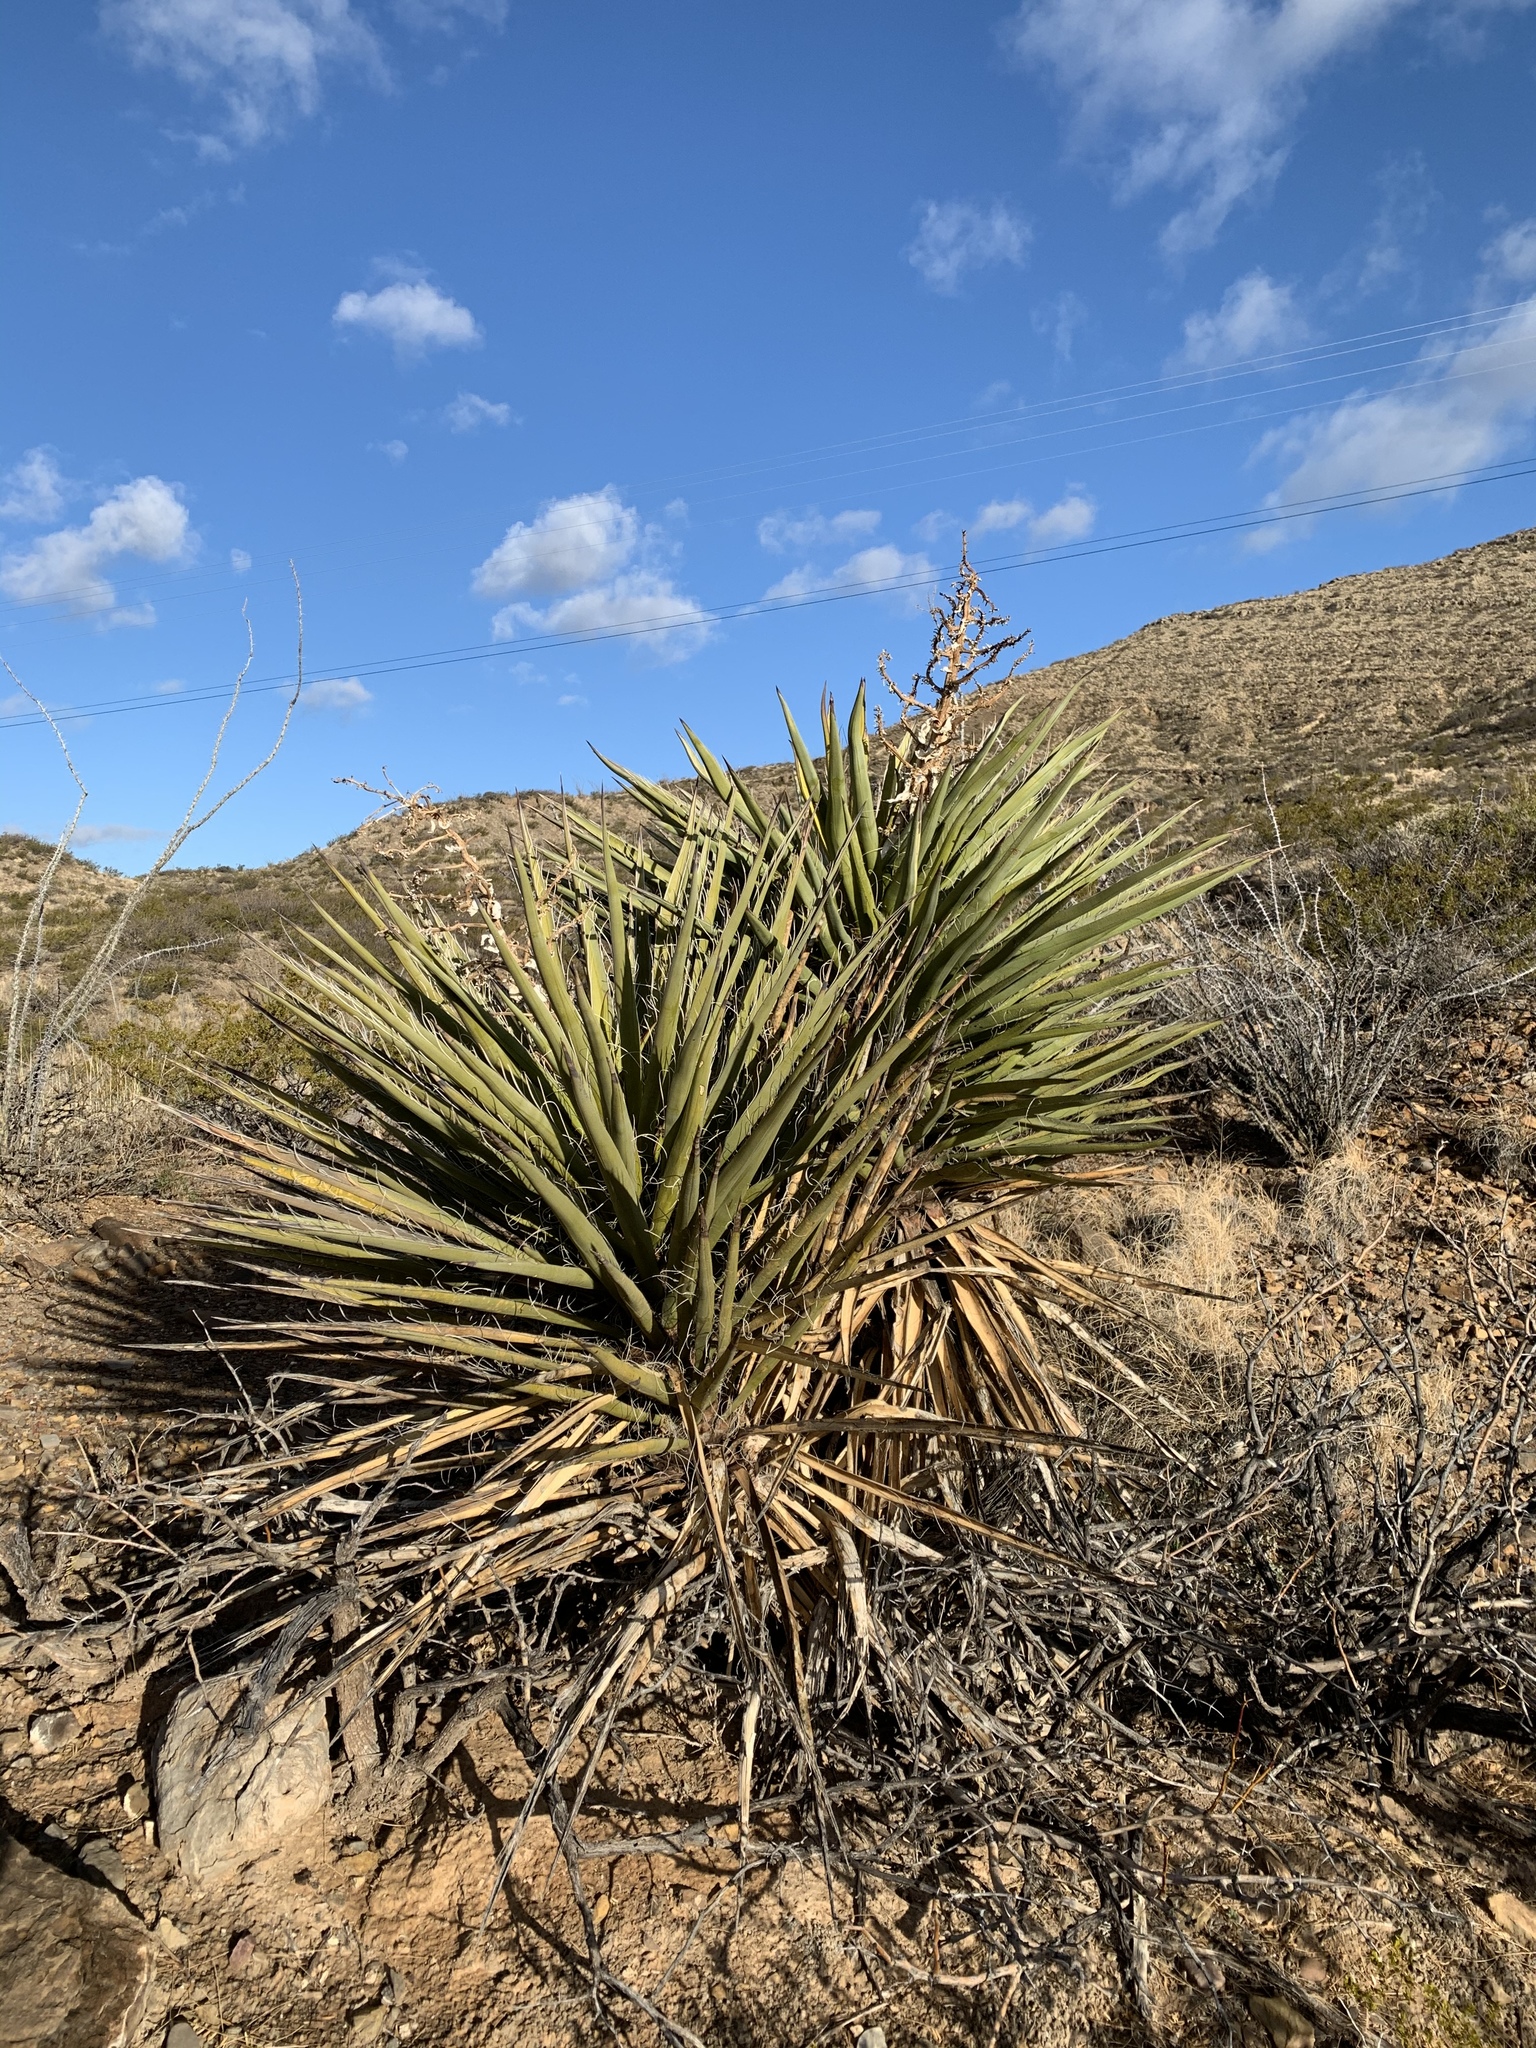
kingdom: Plantae
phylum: Tracheophyta
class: Liliopsida
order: Asparagales
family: Asparagaceae
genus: Yucca
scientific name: Yucca treculiana
